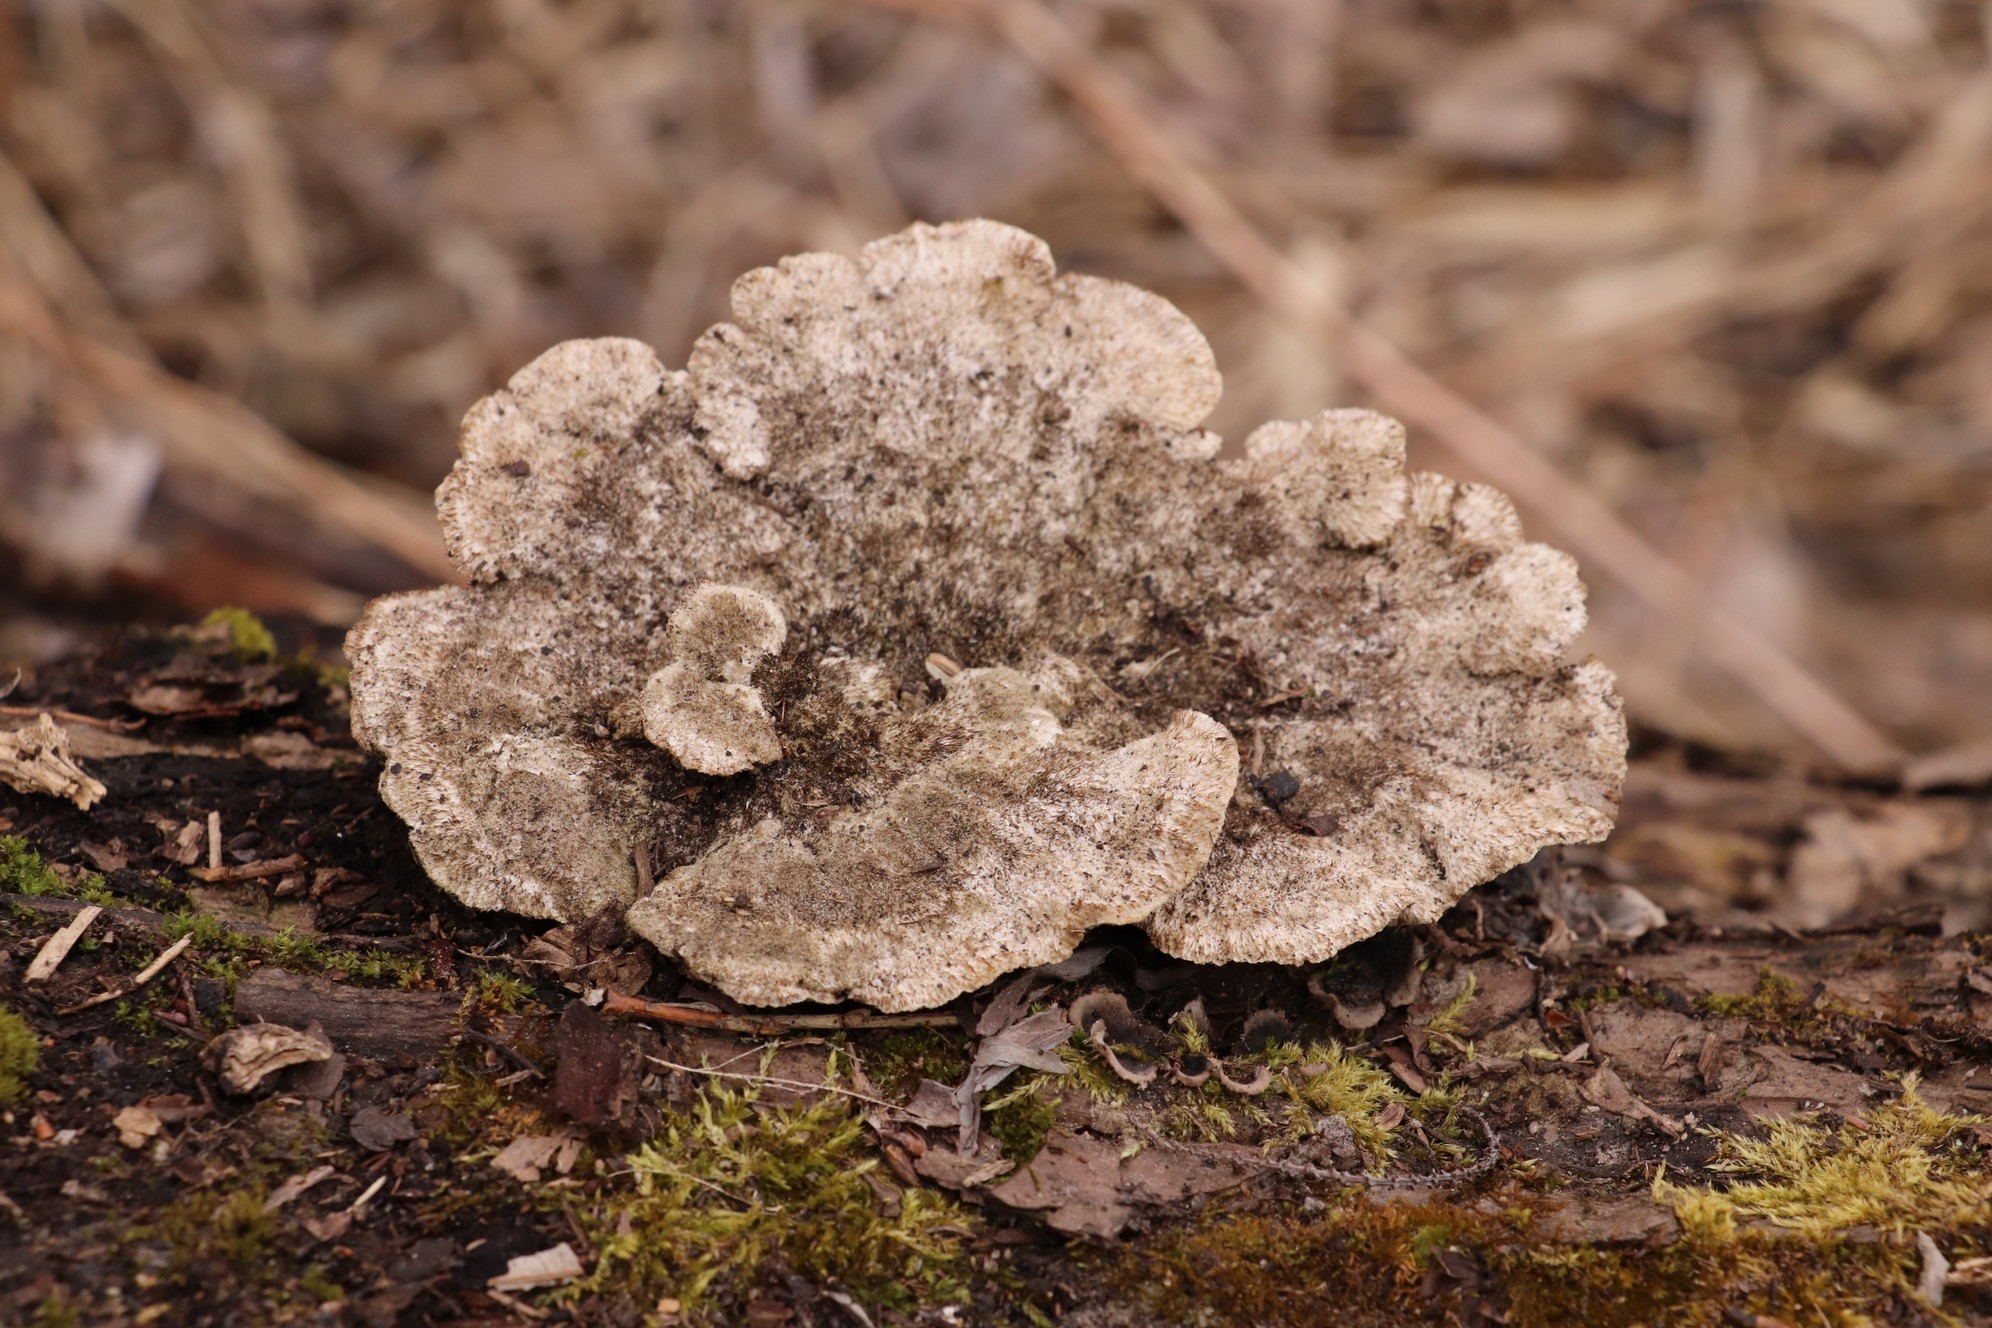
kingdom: Fungi
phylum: Basidiomycota
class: Agaricomycetes
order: Polyporales
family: Polyporaceae
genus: Trametes
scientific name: Trametes trogii
